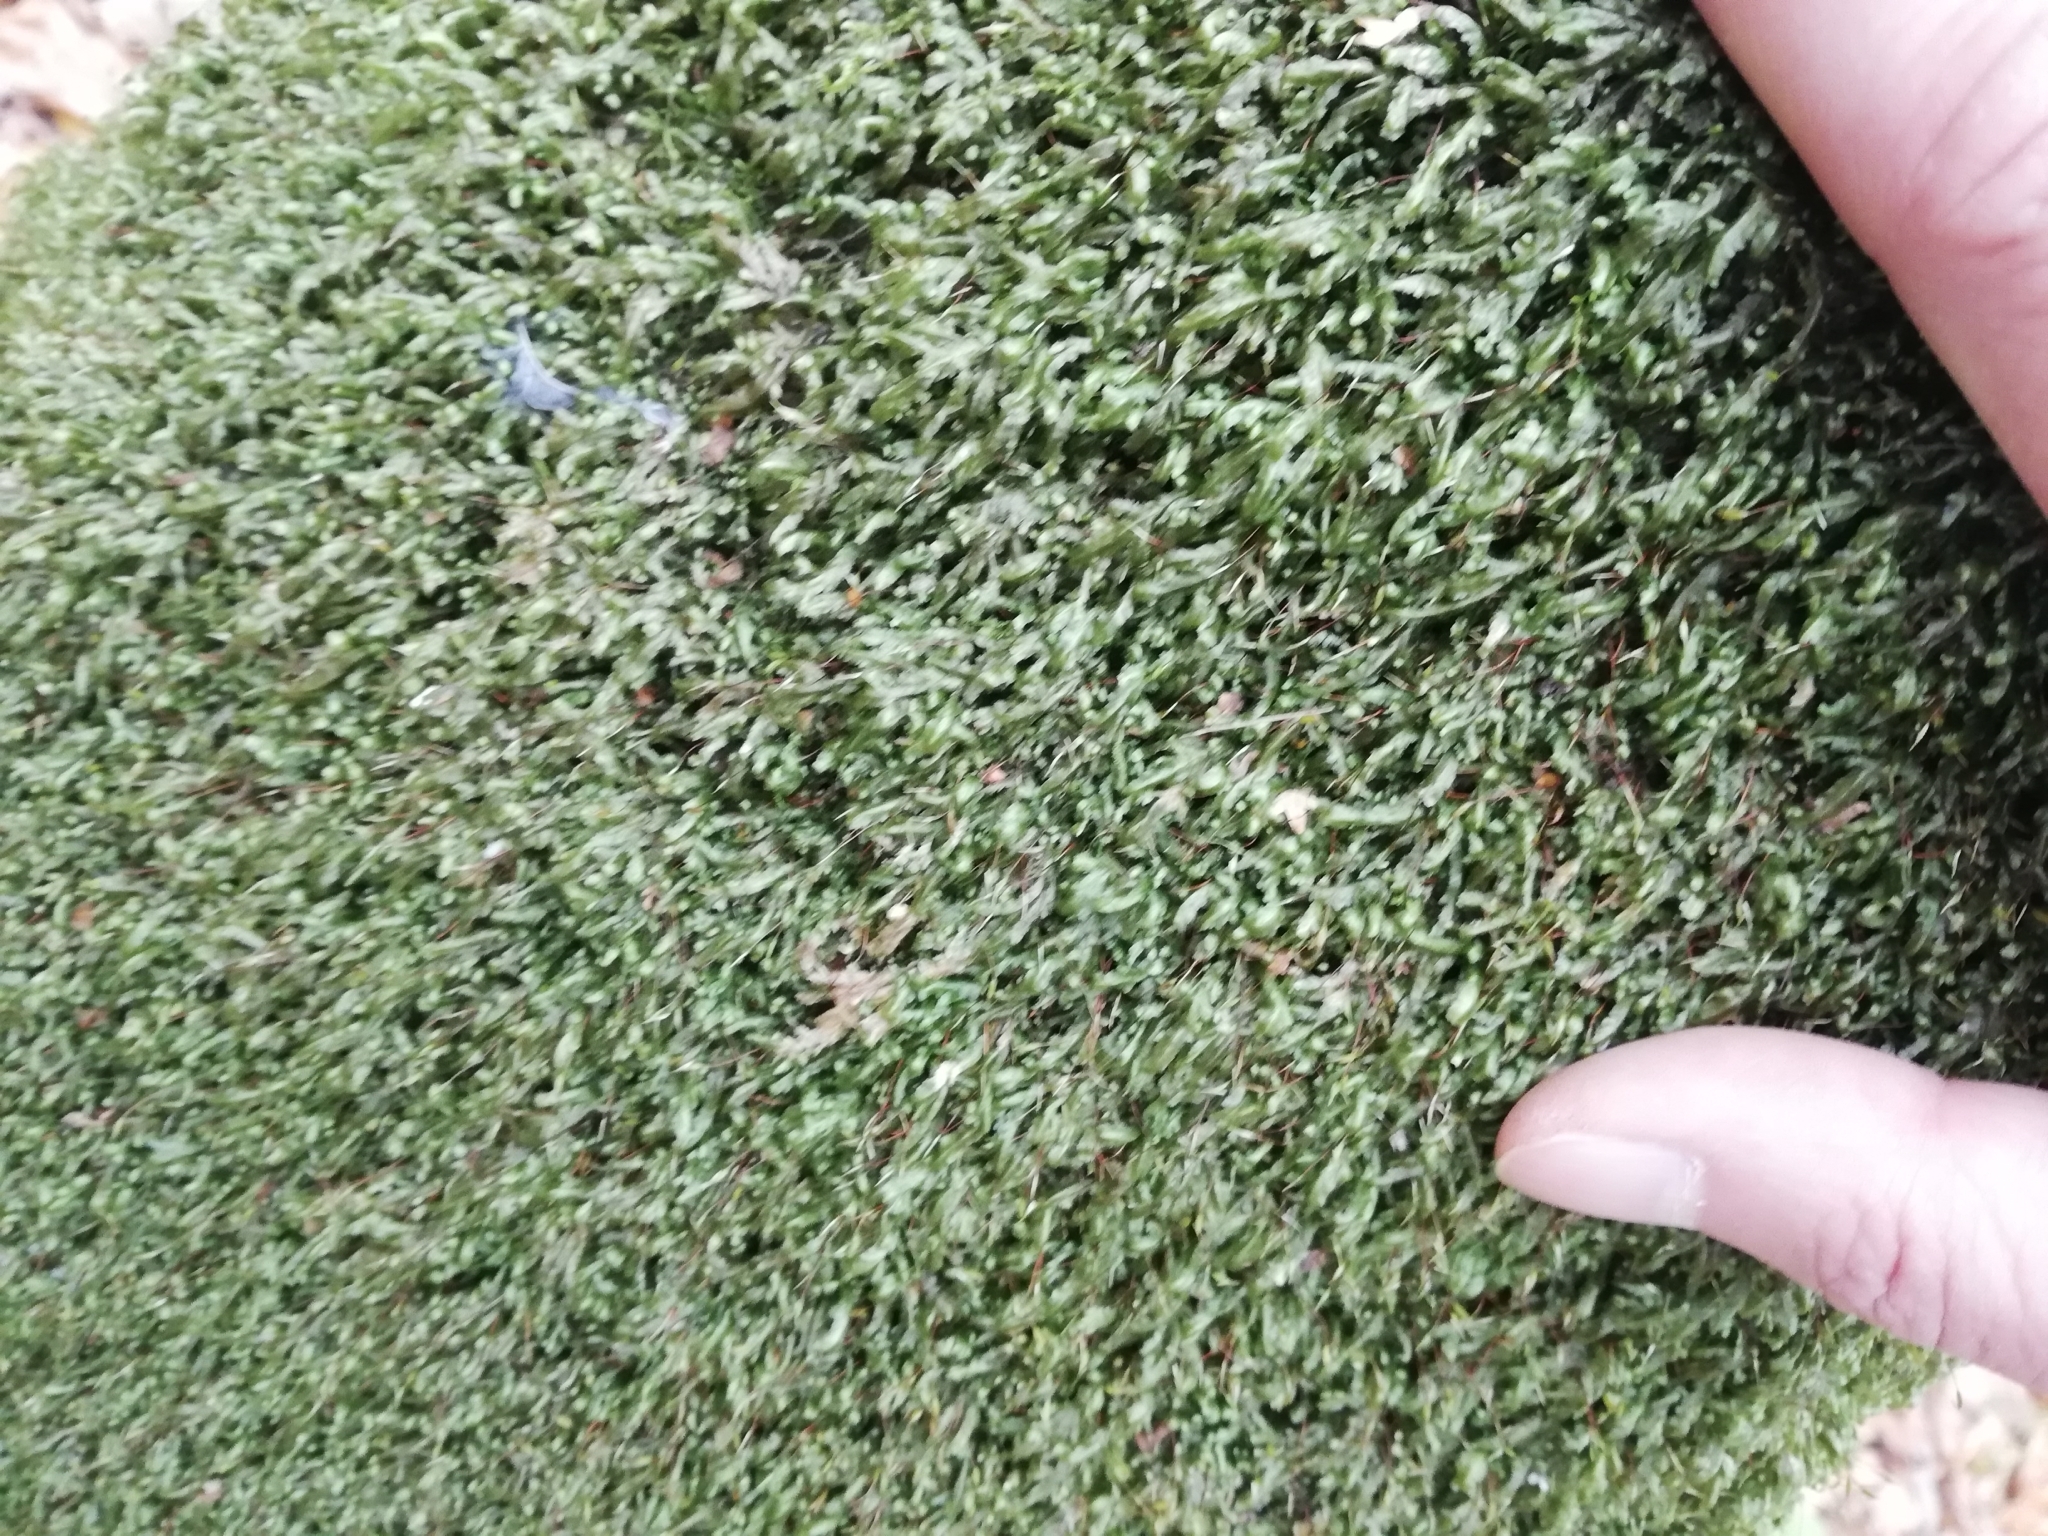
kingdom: Plantae
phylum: Bryophyta
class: Bryopsida
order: Hypnales
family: Neckeraceae
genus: Homalia
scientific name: Homalia trichomanoides
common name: Lime homalia moss
